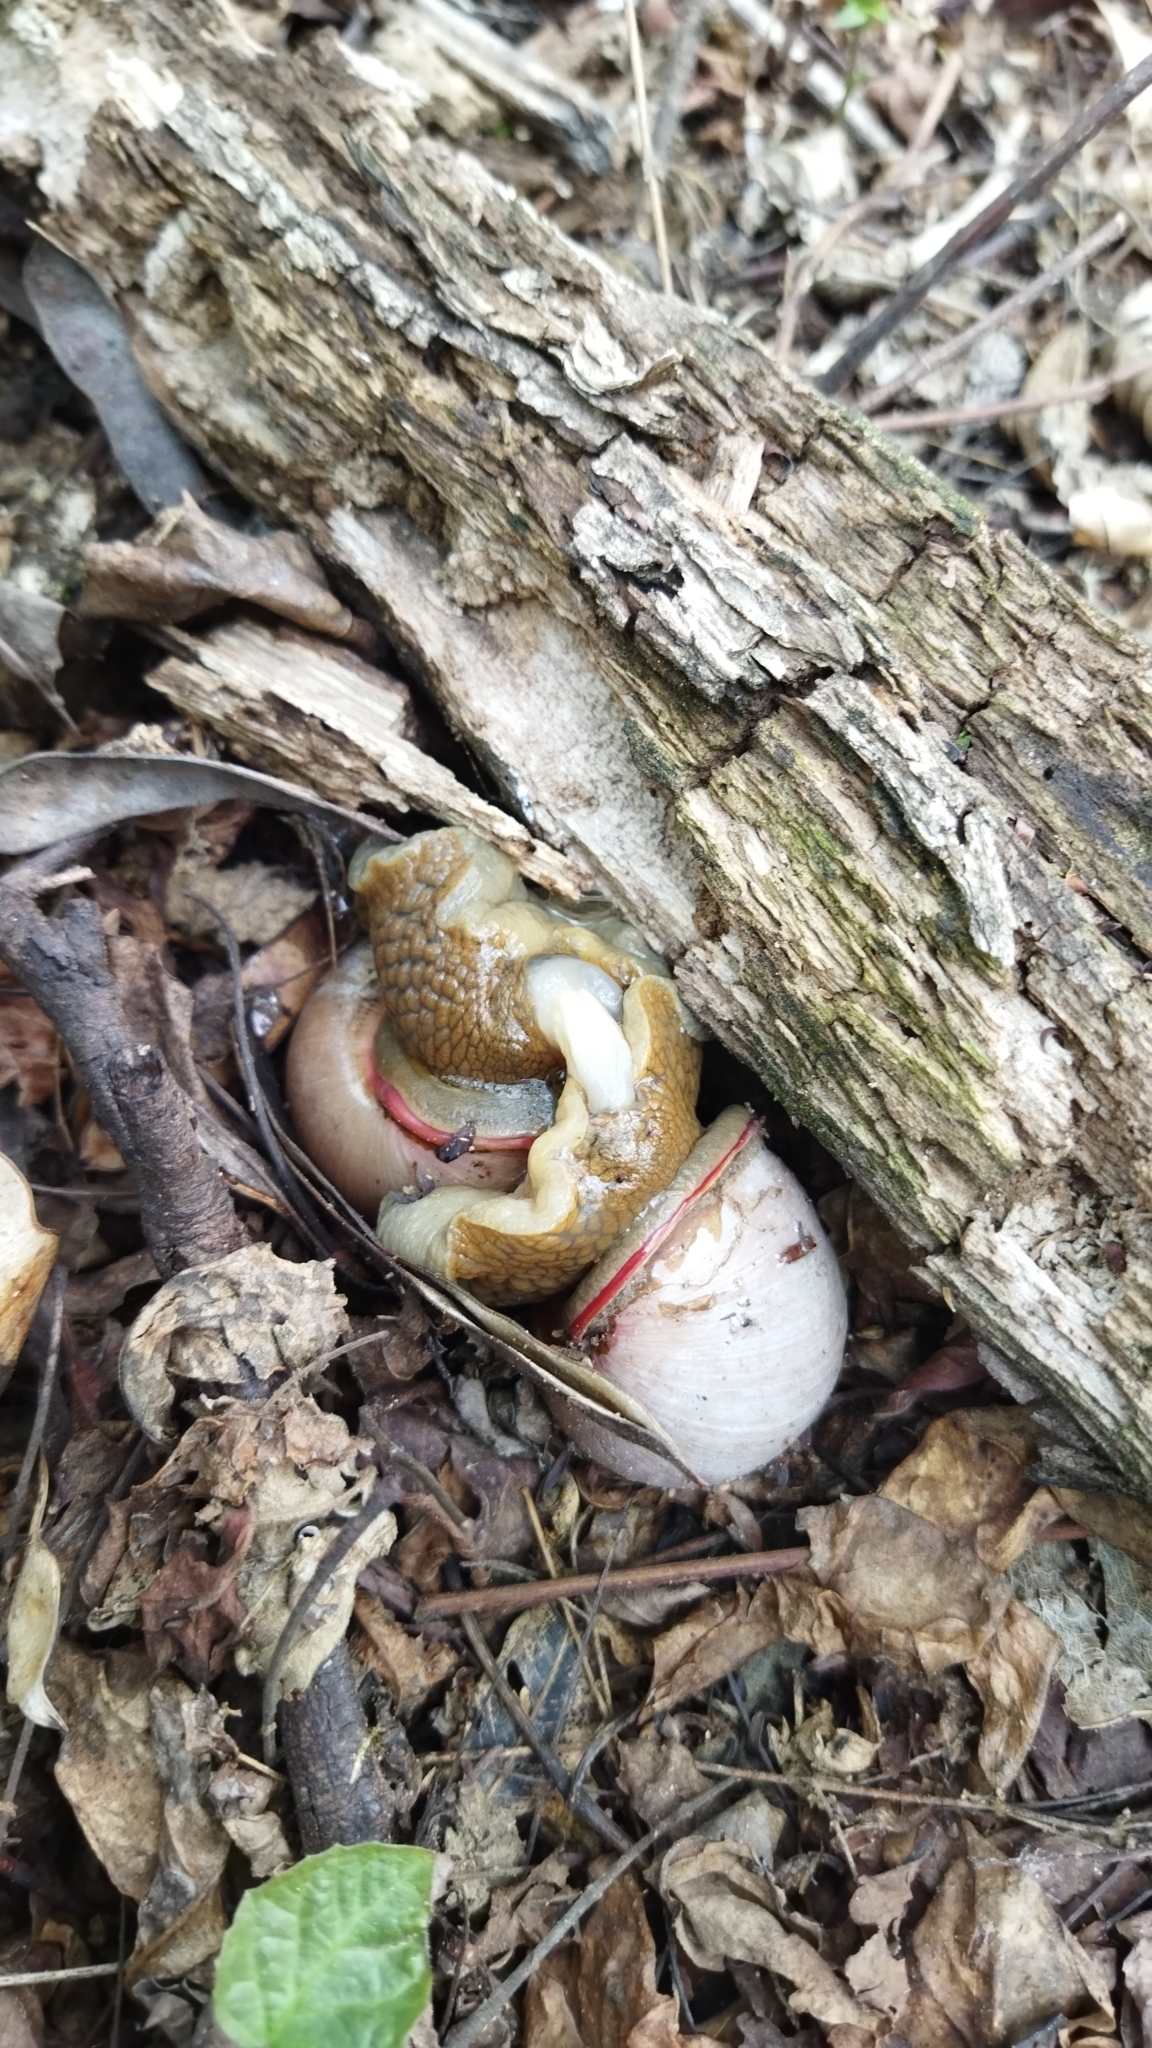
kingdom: Animalia
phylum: Mollusca
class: Gastropoda
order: Stylommatophora
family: Strophocheilidae
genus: Megalobulimus
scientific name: Megalobulimus oblongus
